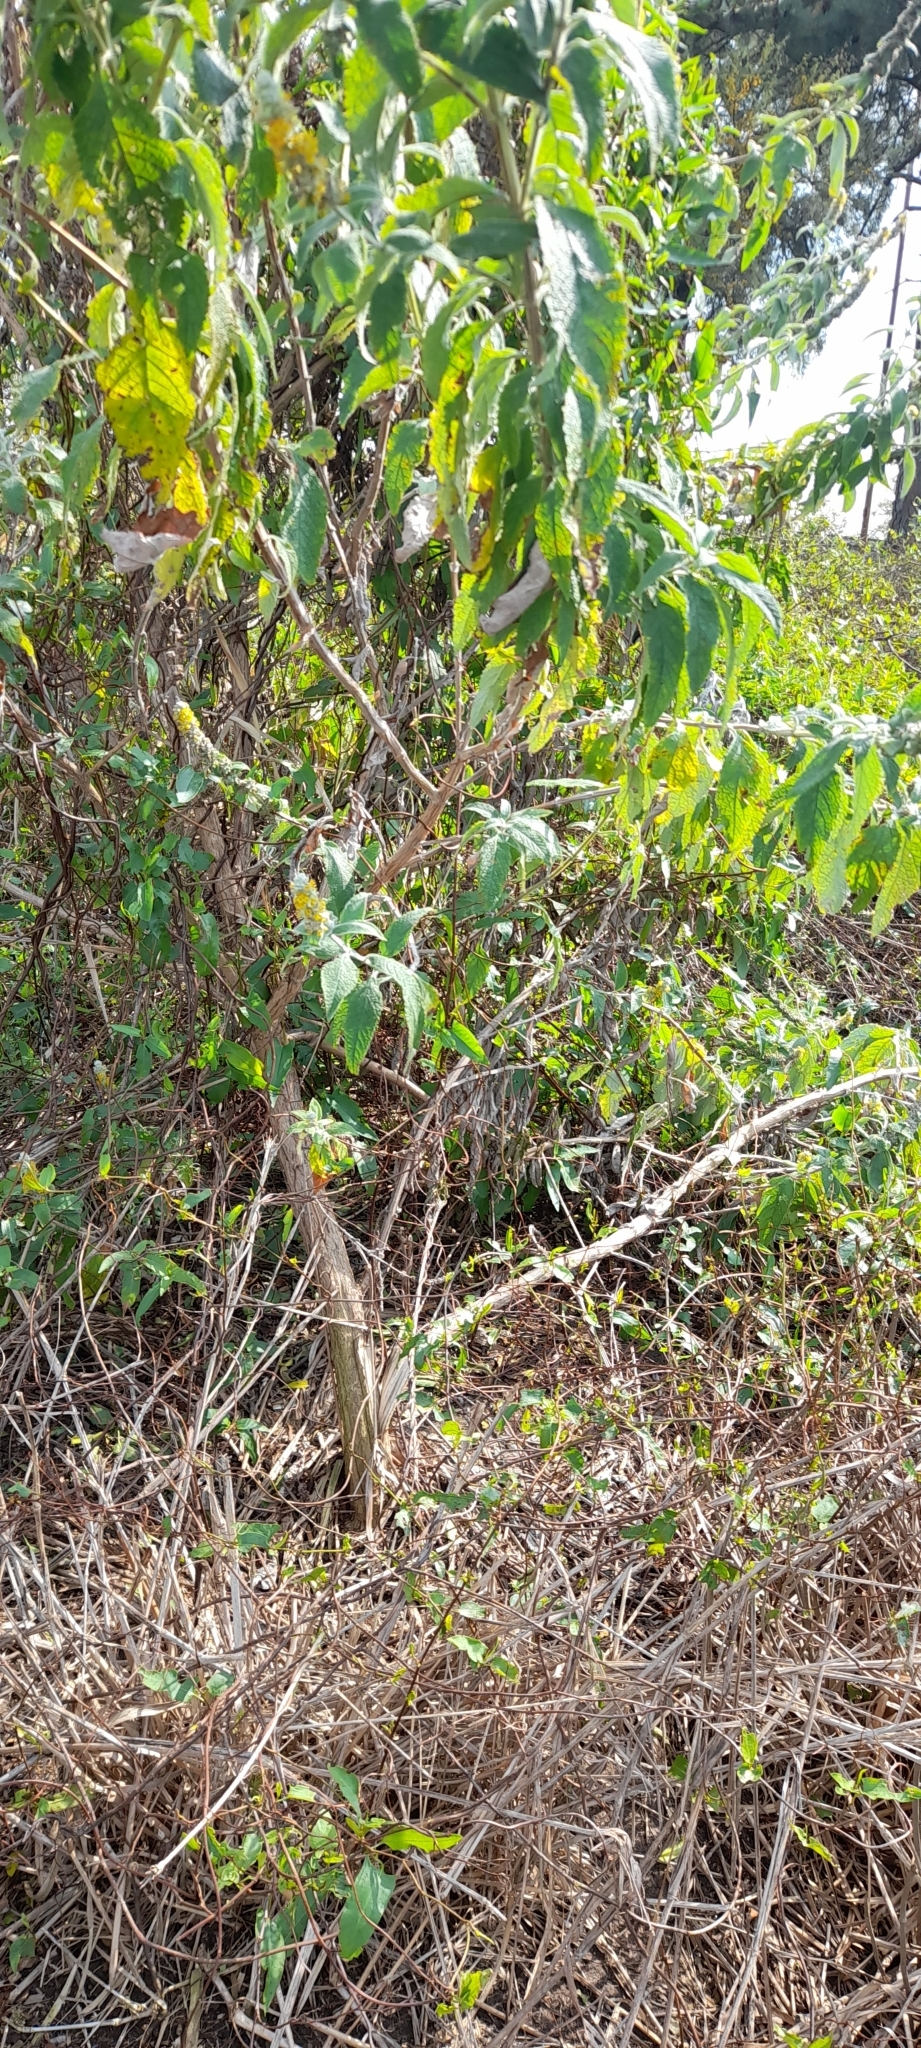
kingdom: Plantae
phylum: Tracheophyta
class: Magnoliopsida
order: Lamiales
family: Scrophulariaceae
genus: Buddleja
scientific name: Buddleja stachyoides
